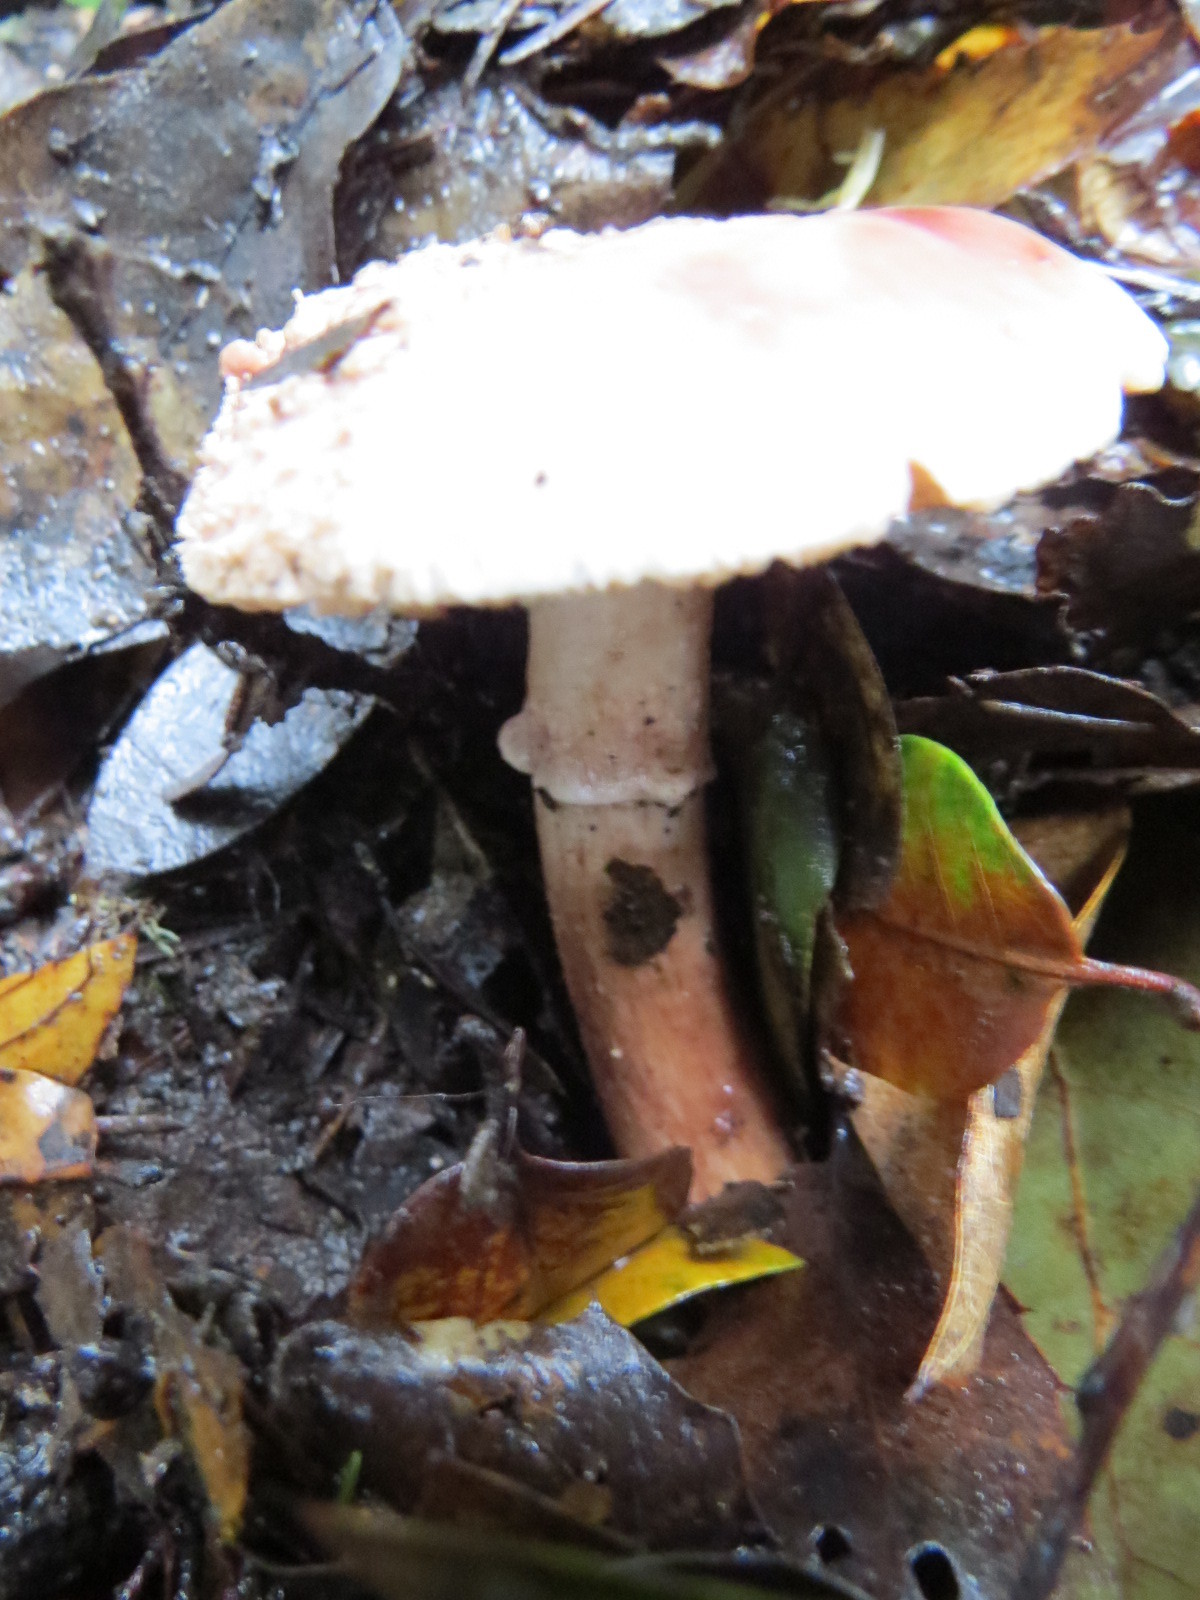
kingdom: Fungi
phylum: Basidiomycota
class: Agaricomycetes
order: Agaricales
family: Amanitaceae
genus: Amanita
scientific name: Amanita novinupta
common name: Blushing bride
